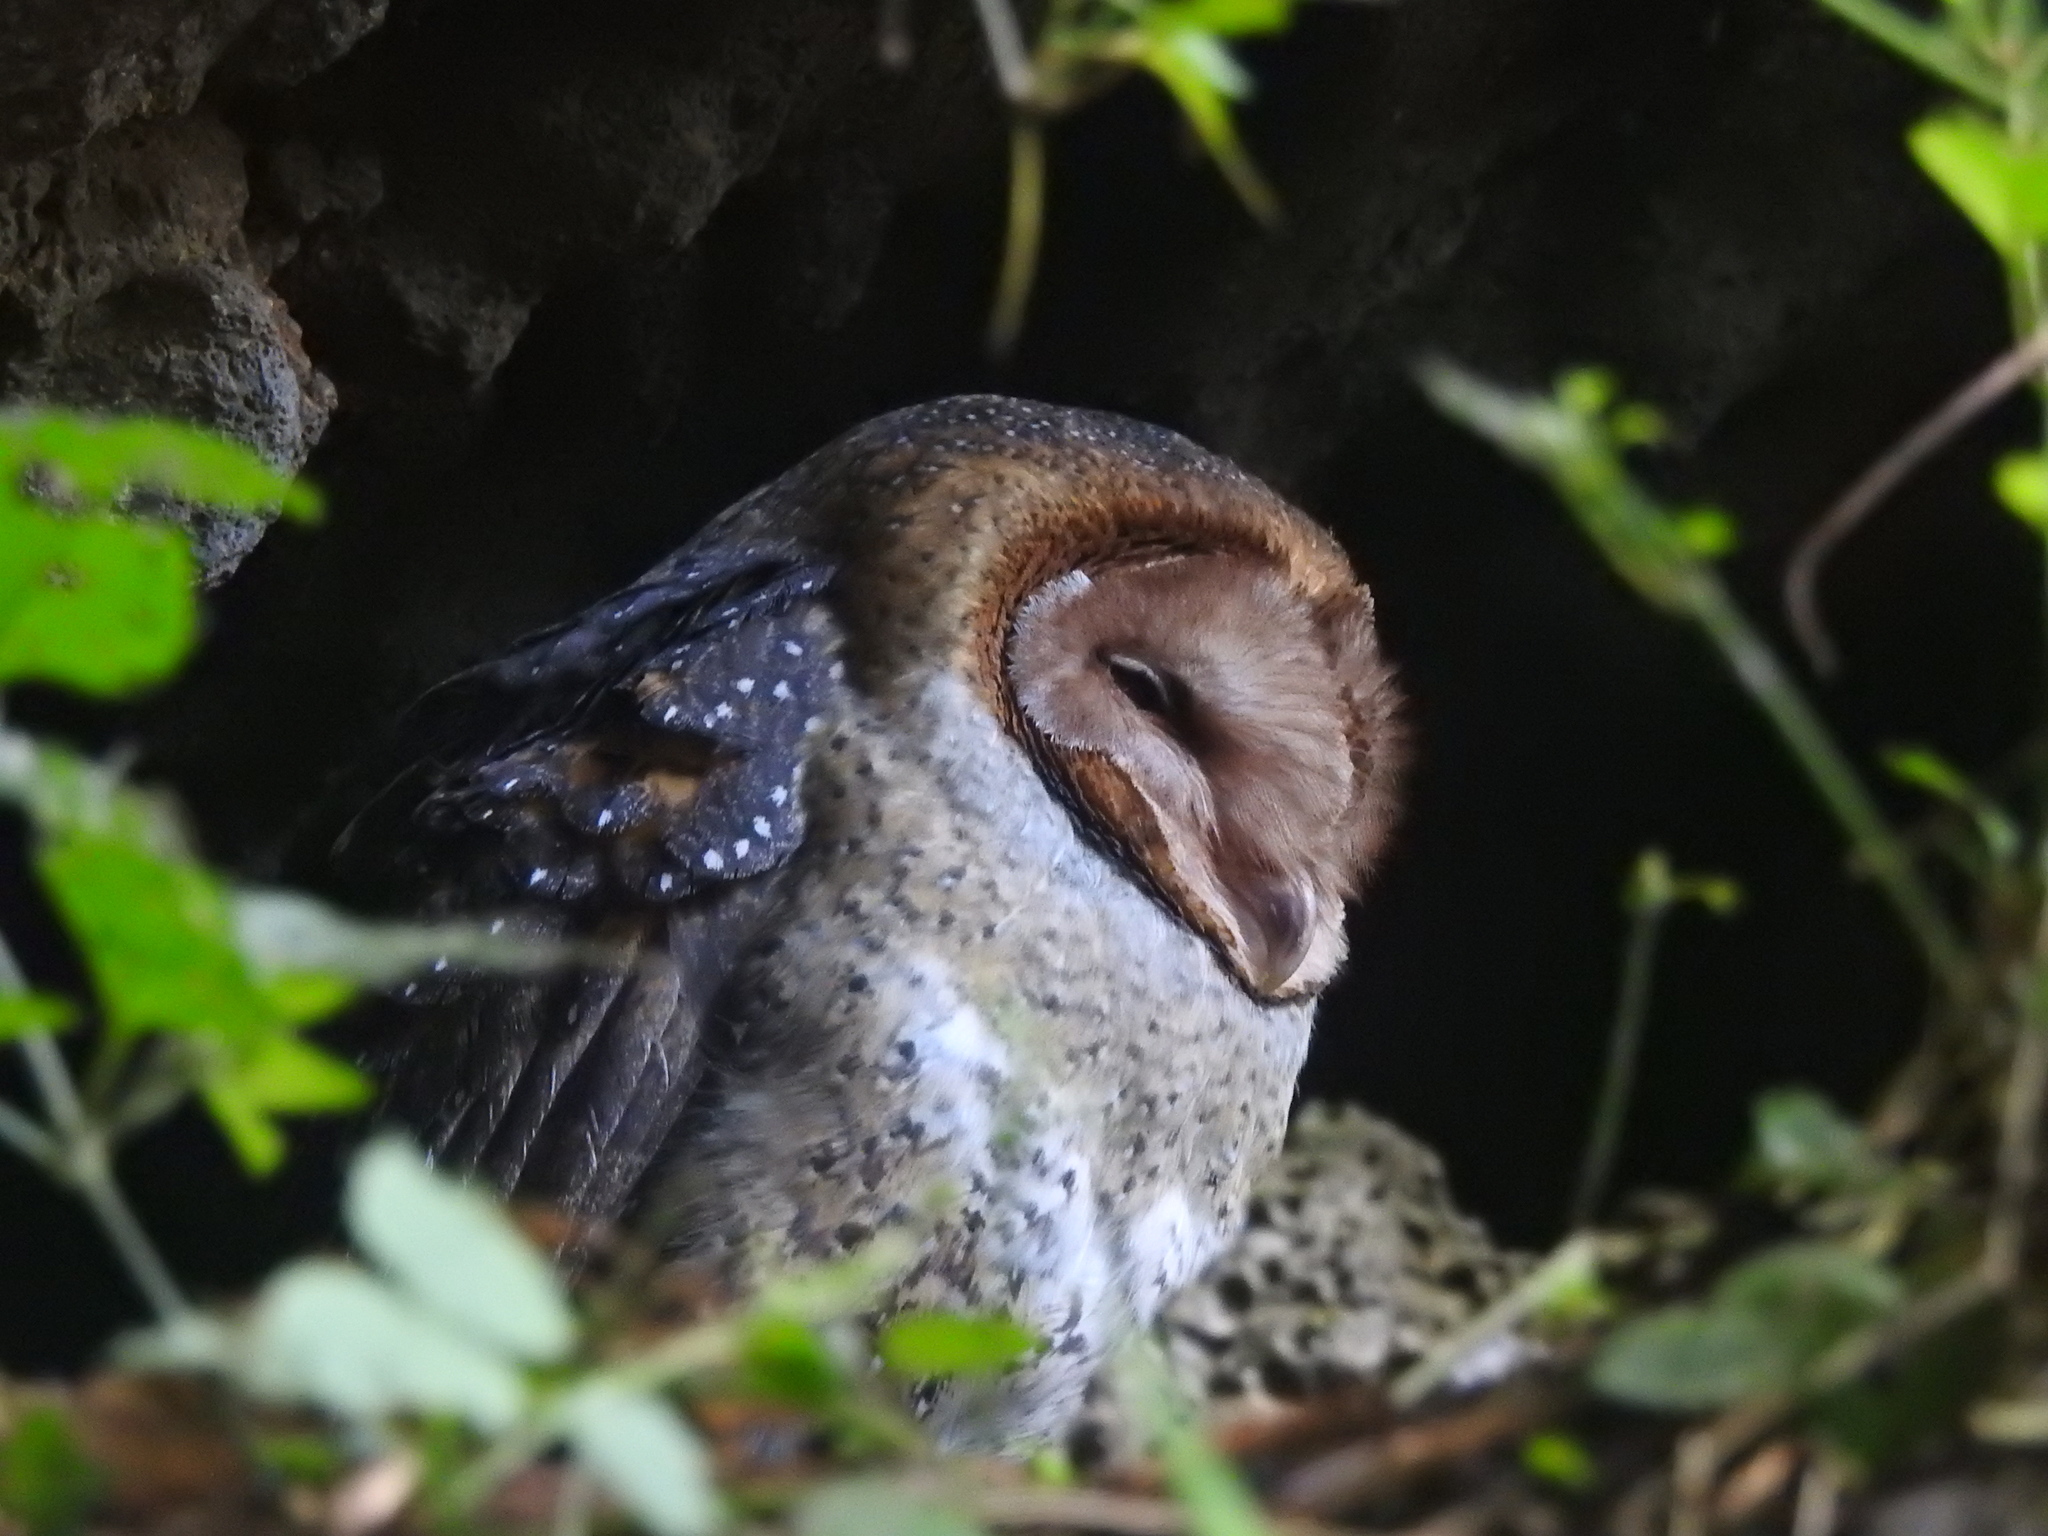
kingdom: Animalia
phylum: Chordata
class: Aves
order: Strigiformes
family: Tytonidae
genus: Tyto
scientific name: Tyto furcata
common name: American barn owl
